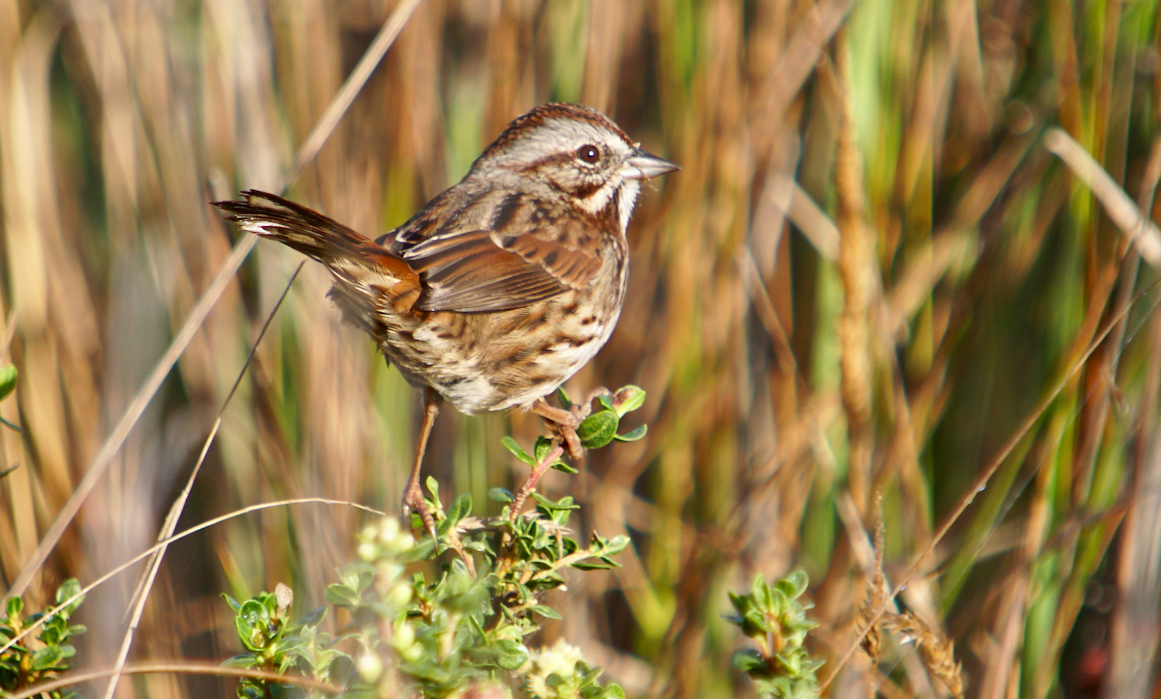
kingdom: Animalia
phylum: Chordata
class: Aves
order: Passeriformes
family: Passerellidae
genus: Melospiza
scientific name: Melospiza melodia
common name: Song sparrow
